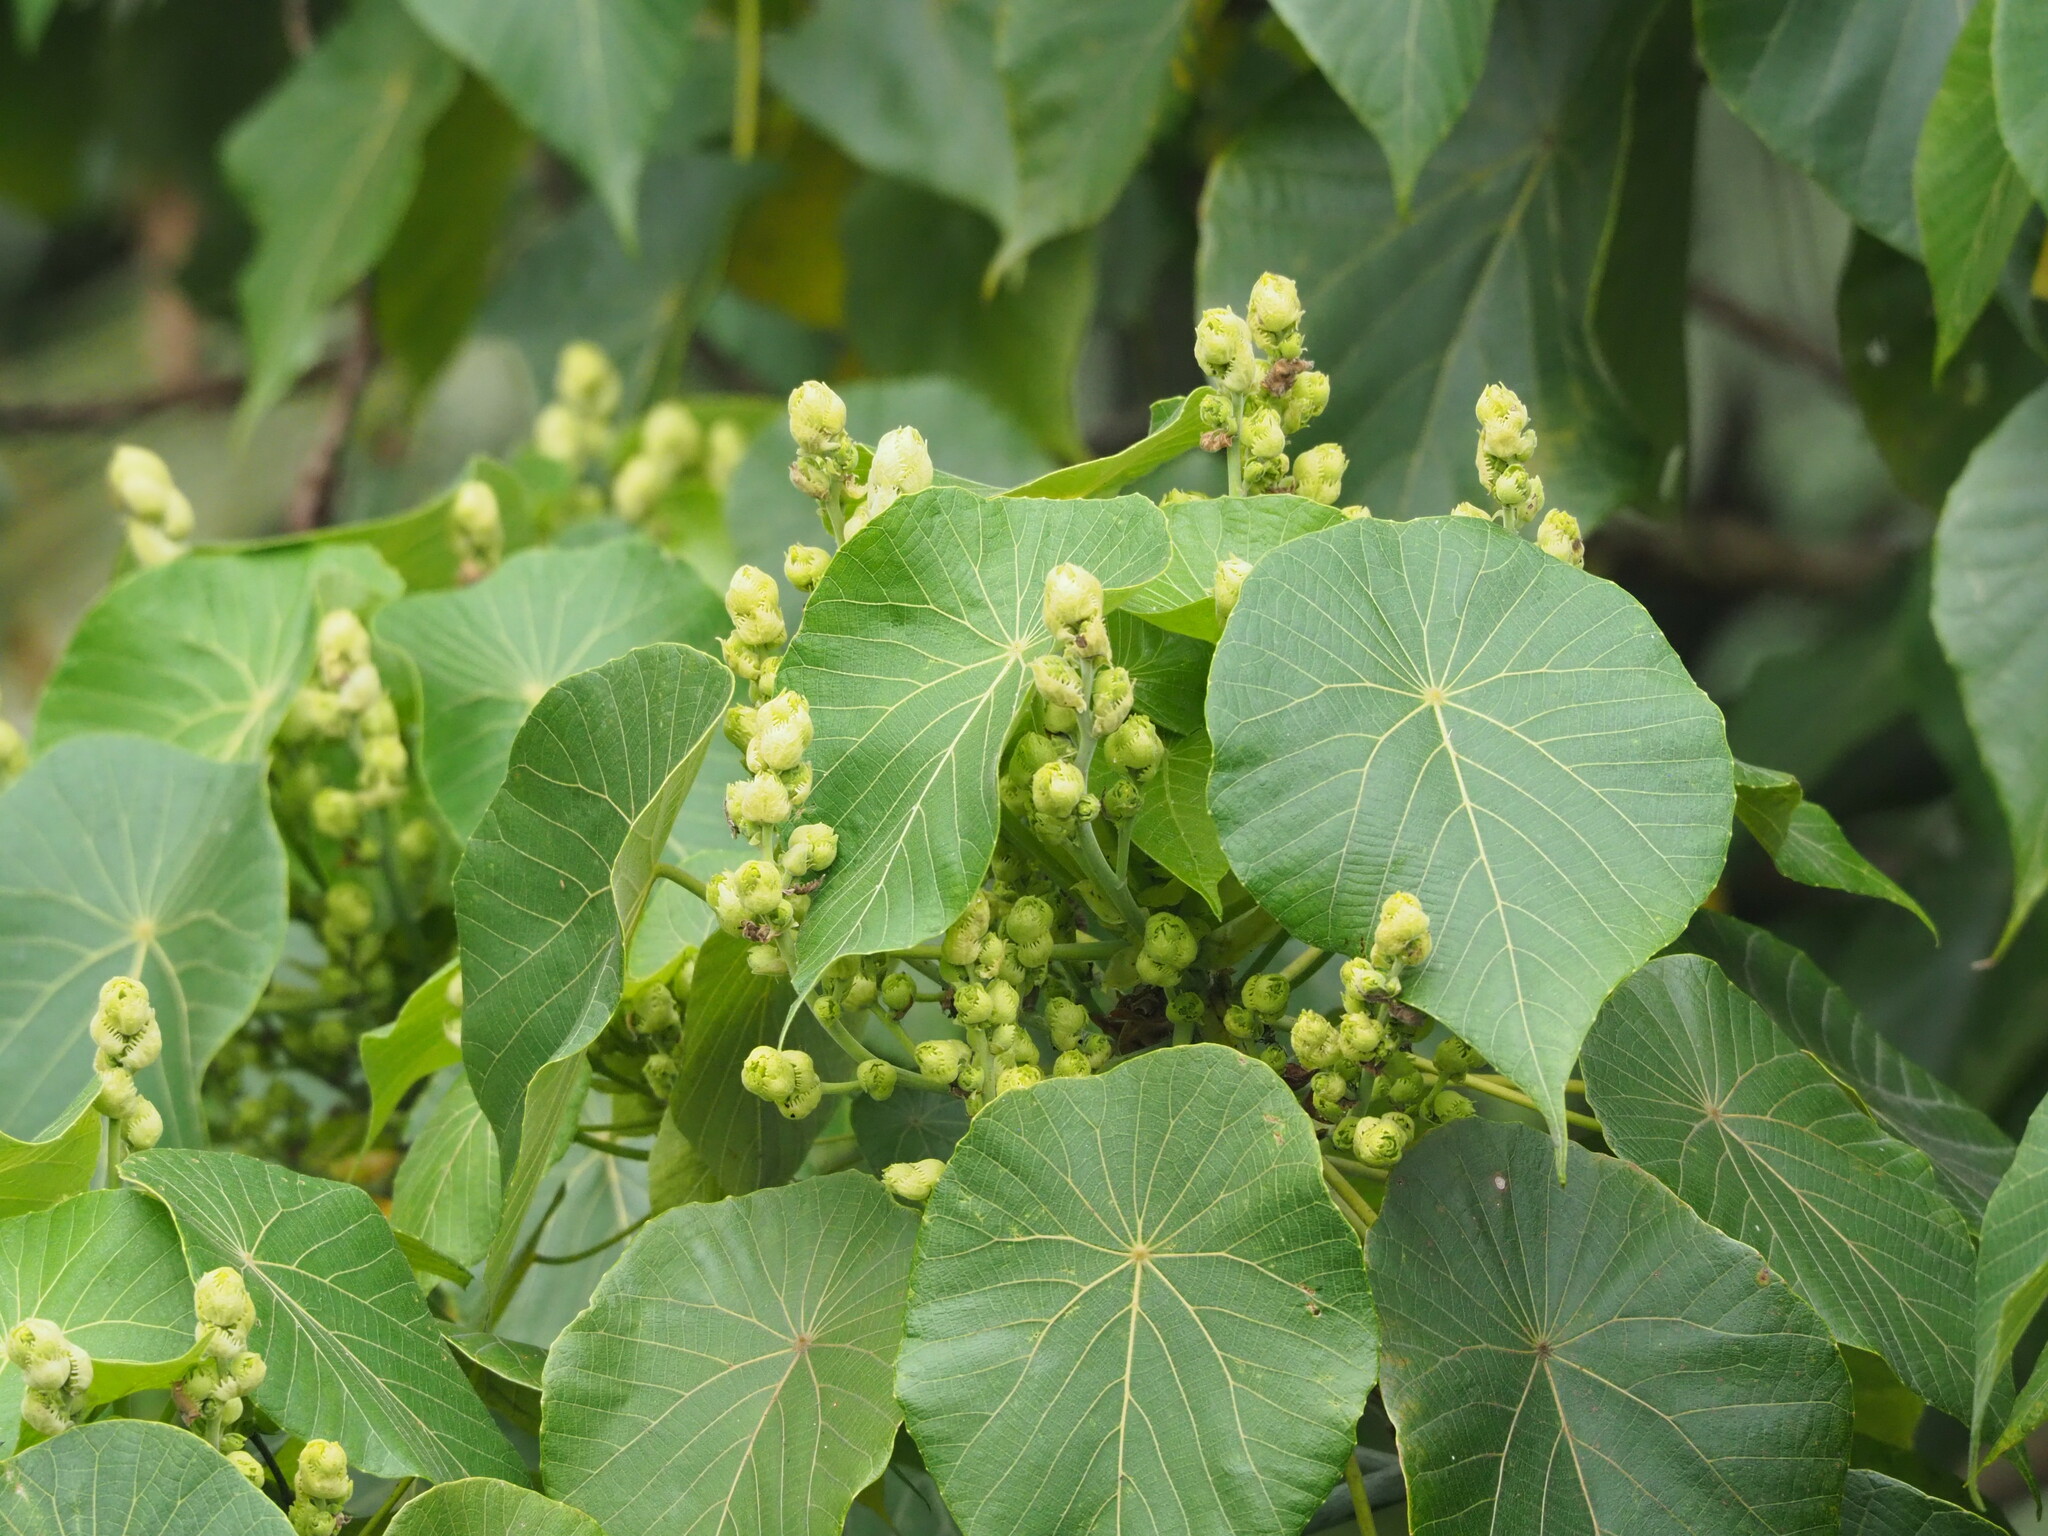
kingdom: Plantae
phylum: Tracheophyta
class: Magnoliopsida
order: Malpighiales
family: Euphorbiaceae
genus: Macaranga
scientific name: Macaranga tanarius
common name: Parasol leaf tree
